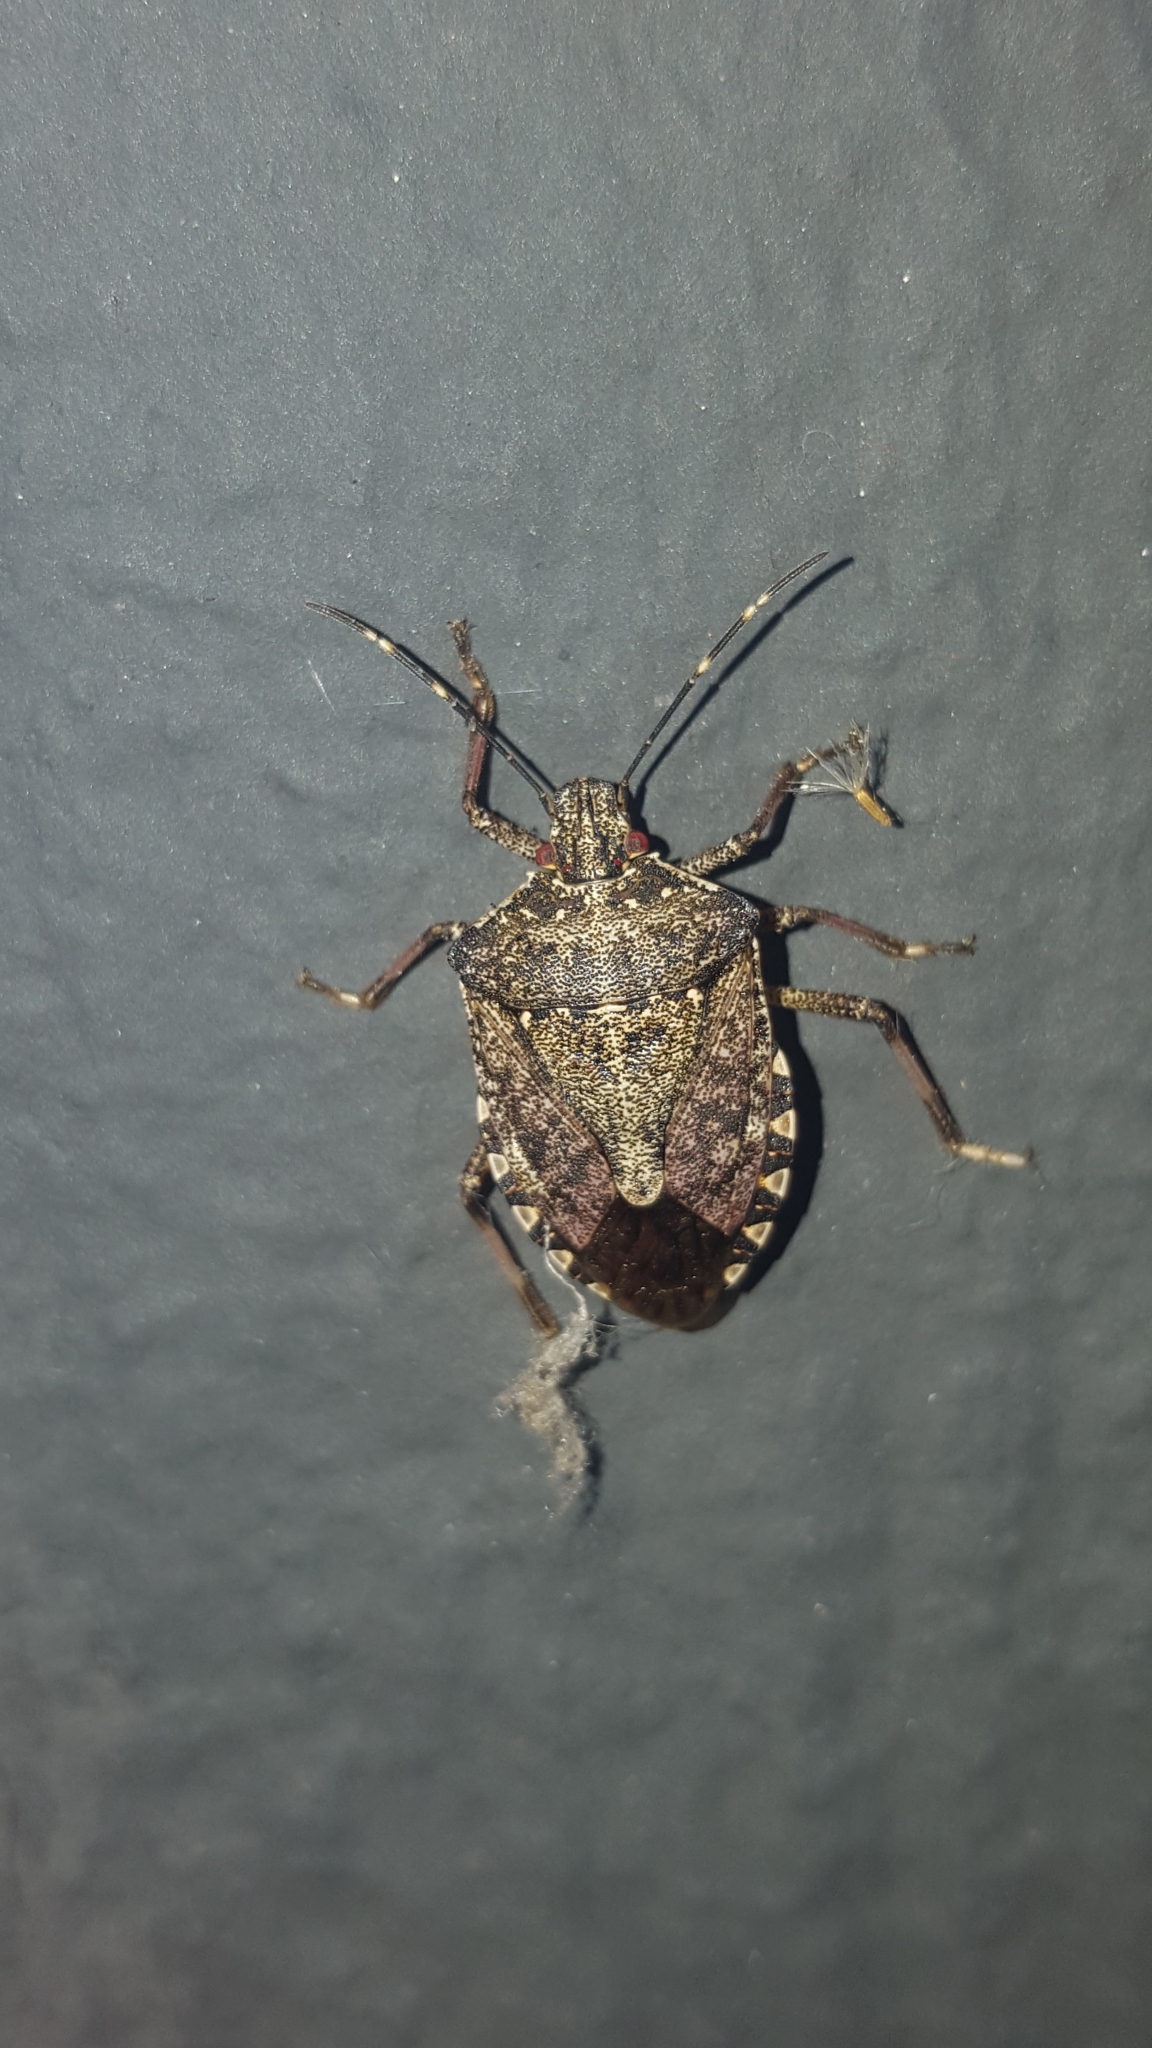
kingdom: Animalia
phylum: Arthropoda
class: Insecta
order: Hemiptera
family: Pentatomidae
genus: Halyomorpha
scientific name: Halyomorpha halys
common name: Brown marmorated stink bug
